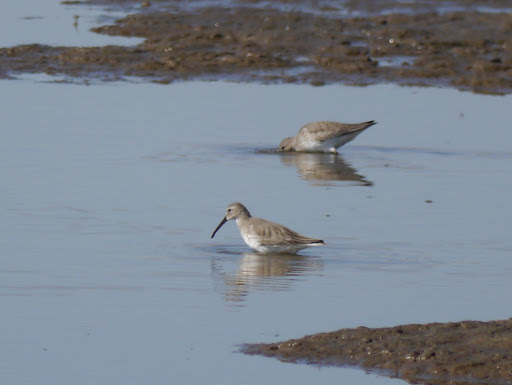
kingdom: Animalia
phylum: Chordata
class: Aves
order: Charadriiformes
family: Scolopacidae
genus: Calidris
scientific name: Calidris alpina
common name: Dunlin
